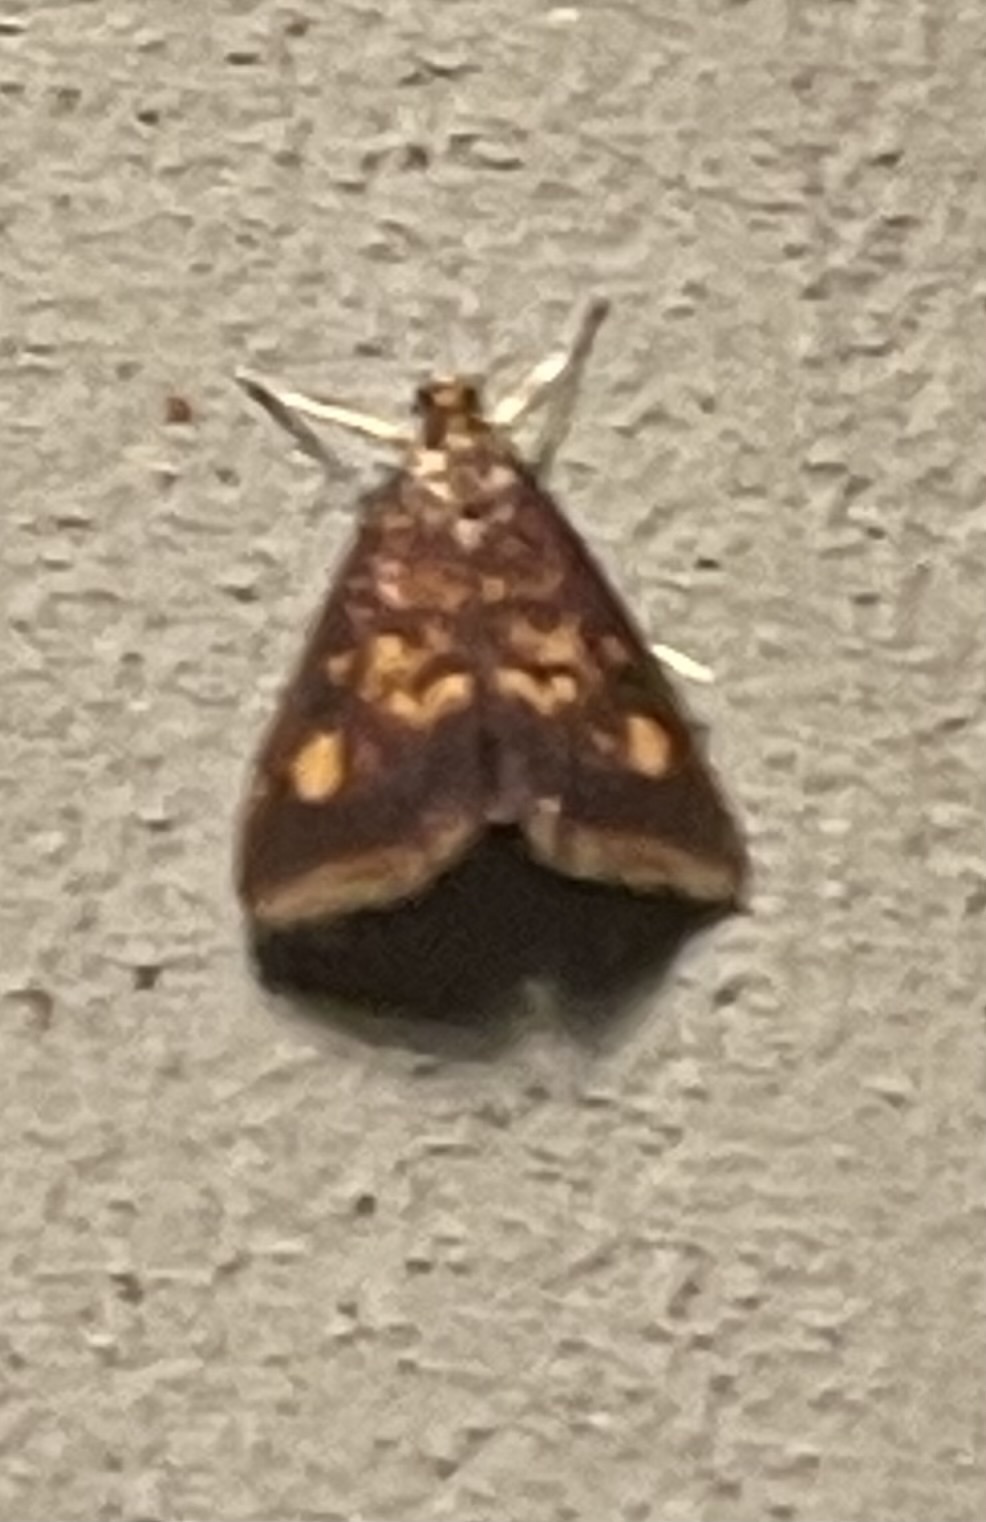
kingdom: Animalia
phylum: Arthropoda
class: Insecta
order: Lepidoptera
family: Crambidae
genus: Pyrausta
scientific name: Pyrausta acrionalis
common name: Mint-loving pyrausta moth
